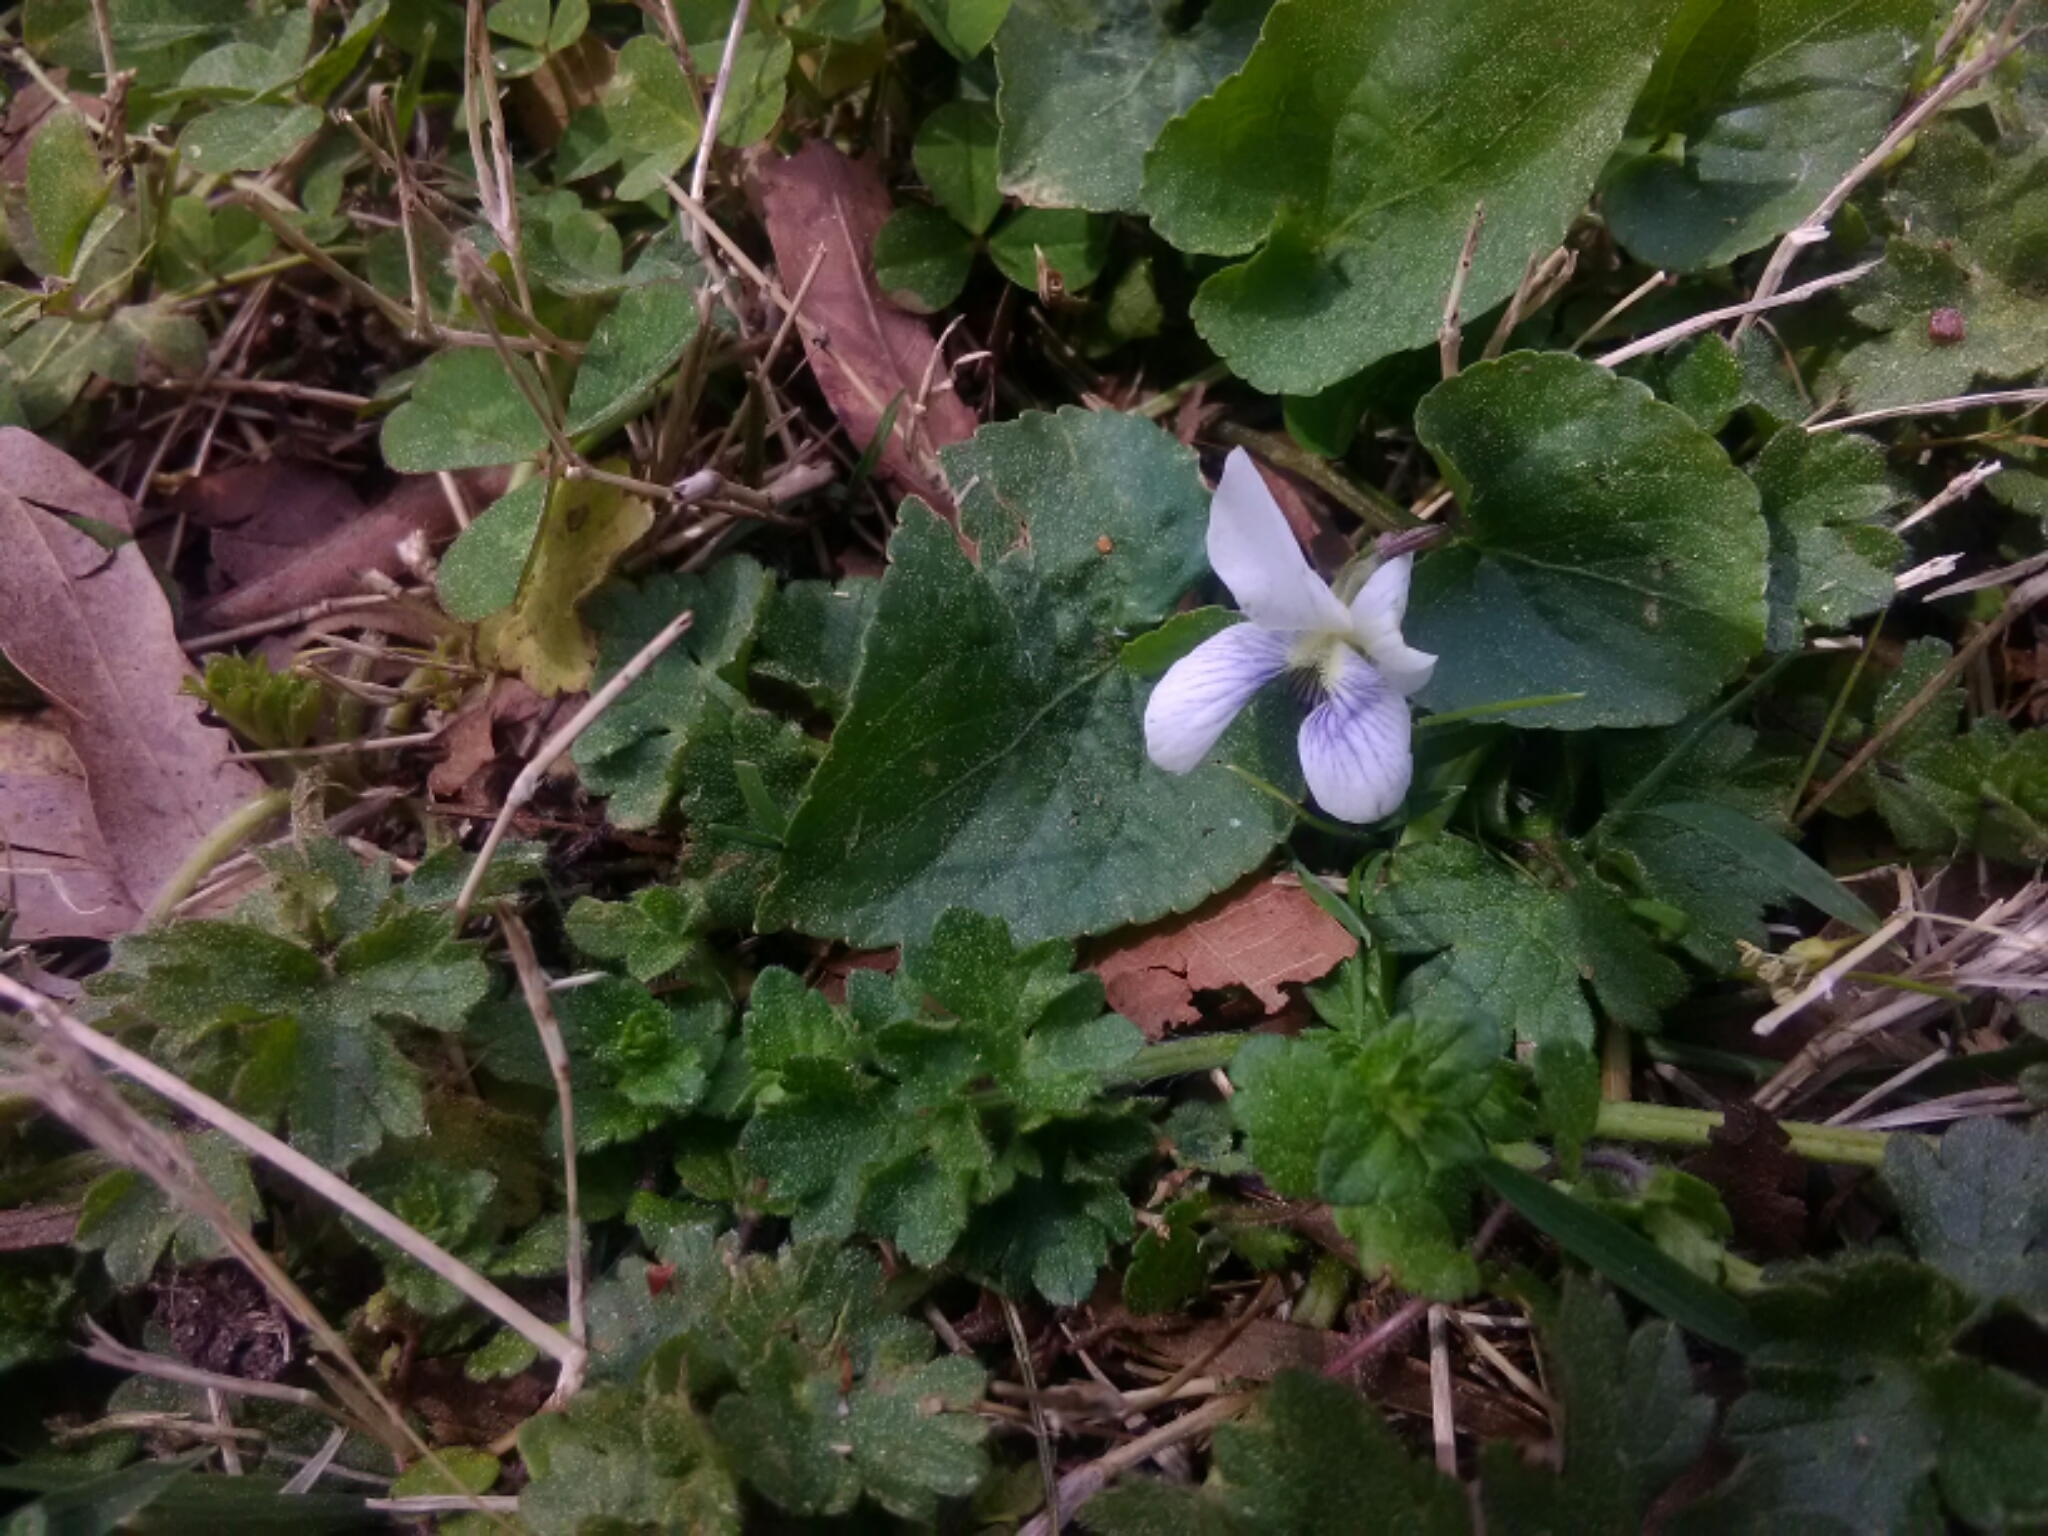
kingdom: Plantae
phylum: Tracheophyta
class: Magnoliopsida
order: Malpighiales
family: Violaceae
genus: Viola
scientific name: Viola sororia
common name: Dooryard violet
